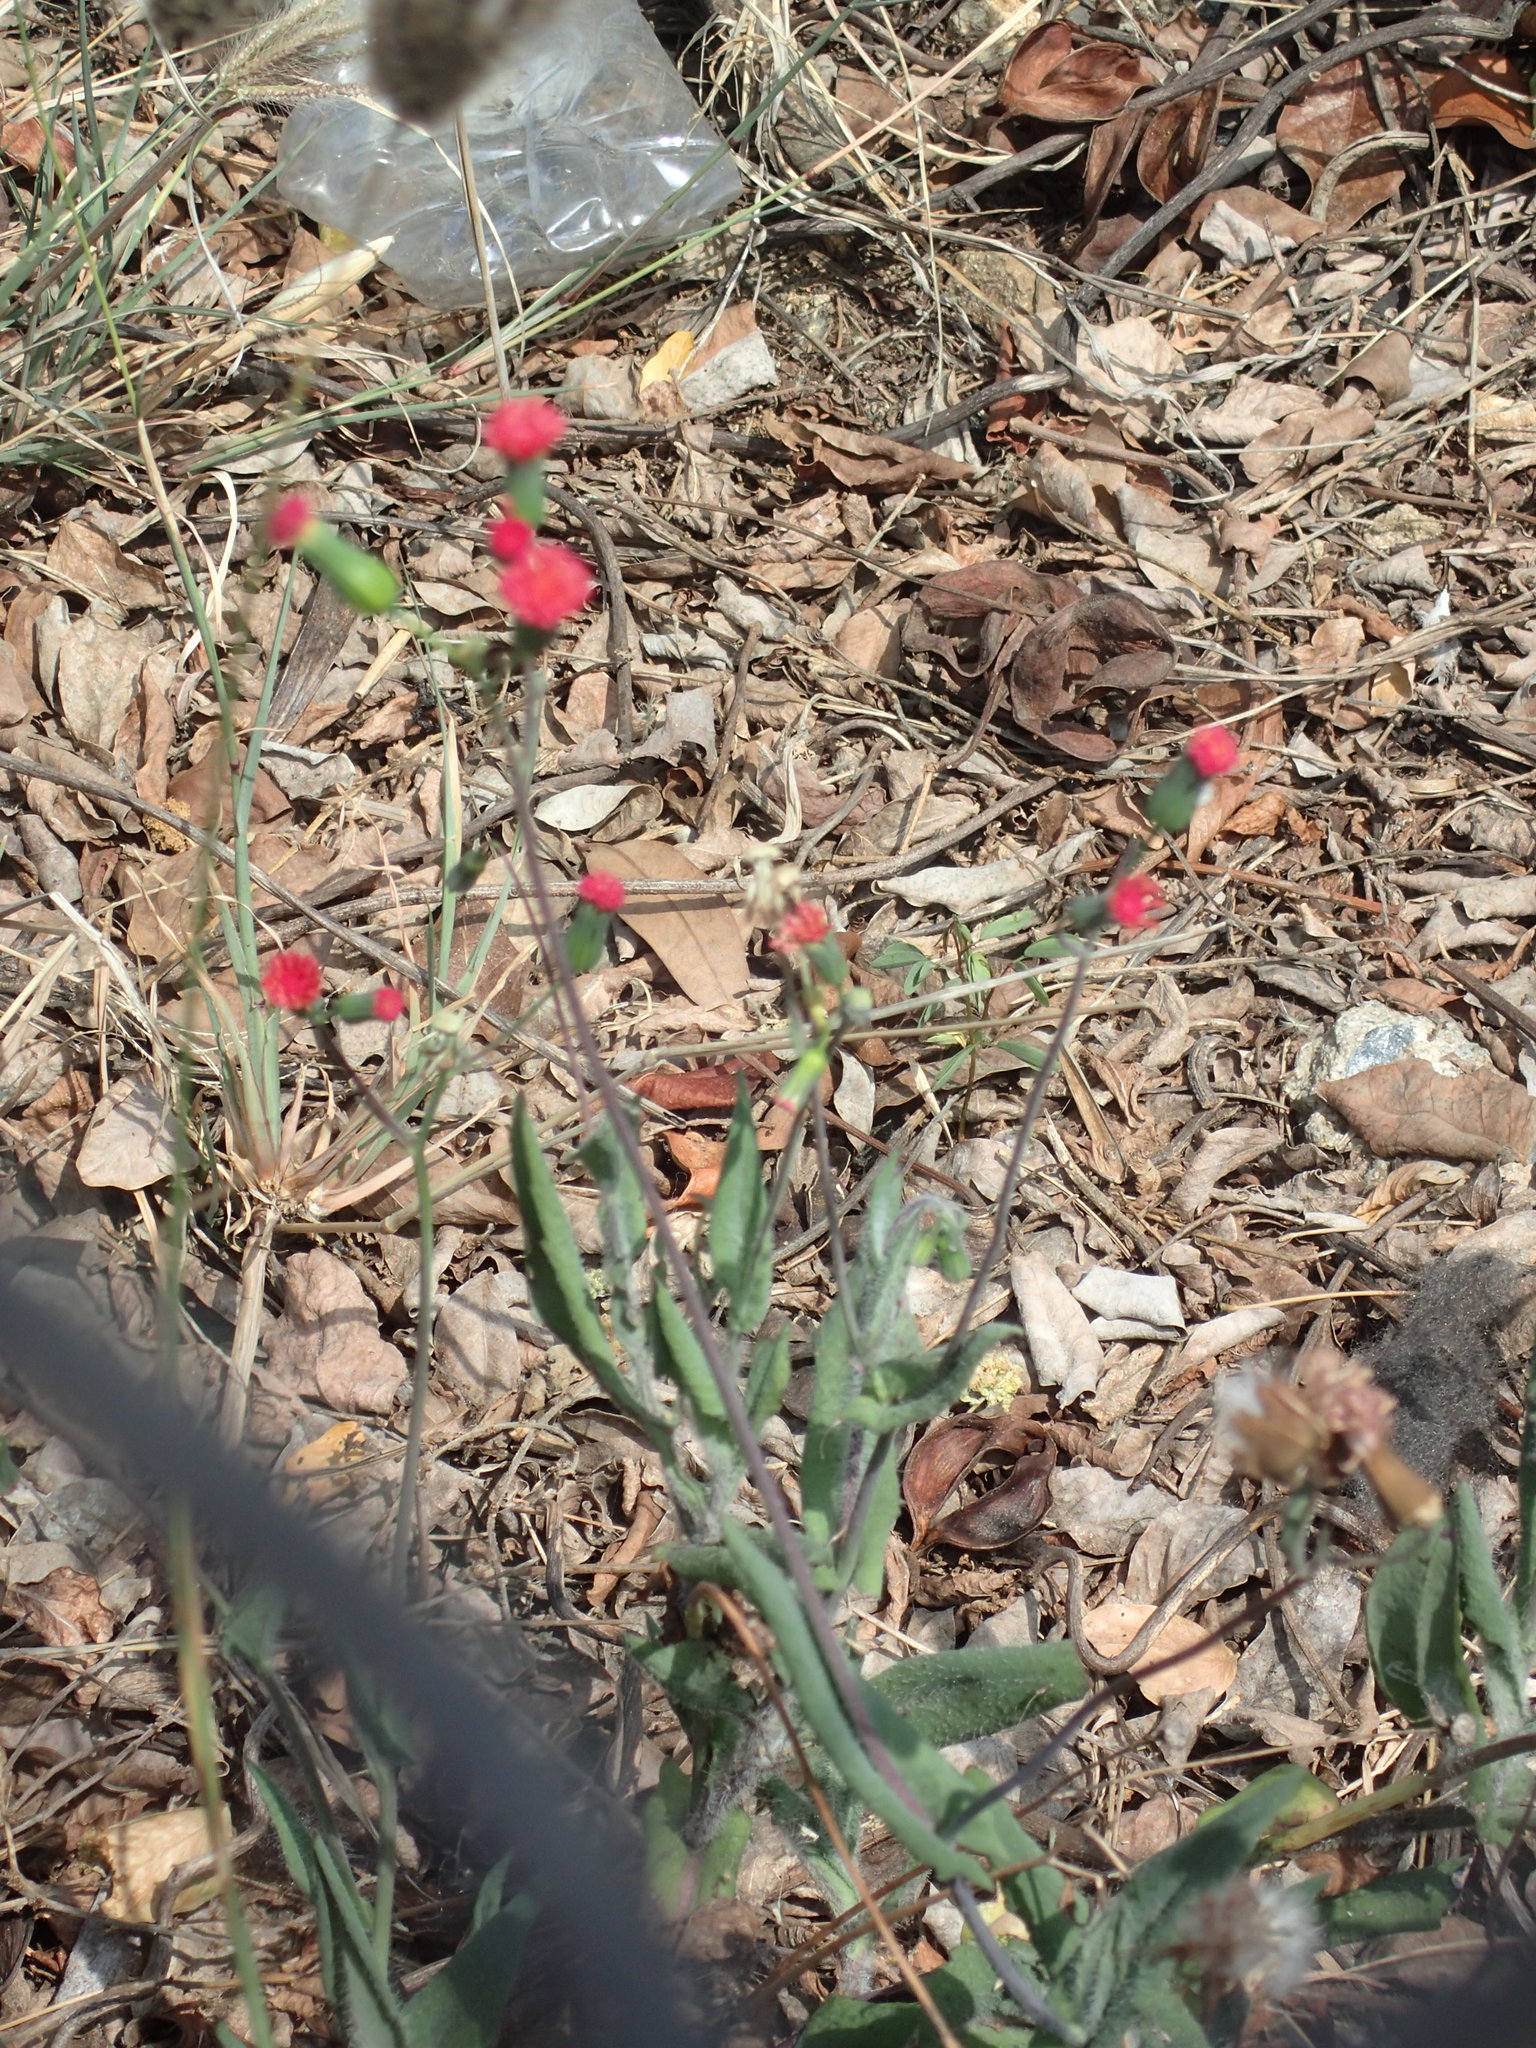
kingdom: Plantae
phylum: Tracheophyta
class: Magnoliopsida
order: Asterales
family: Asteraceae
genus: Emilia
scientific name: Emilia fosbergii
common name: Florida tasselflower
